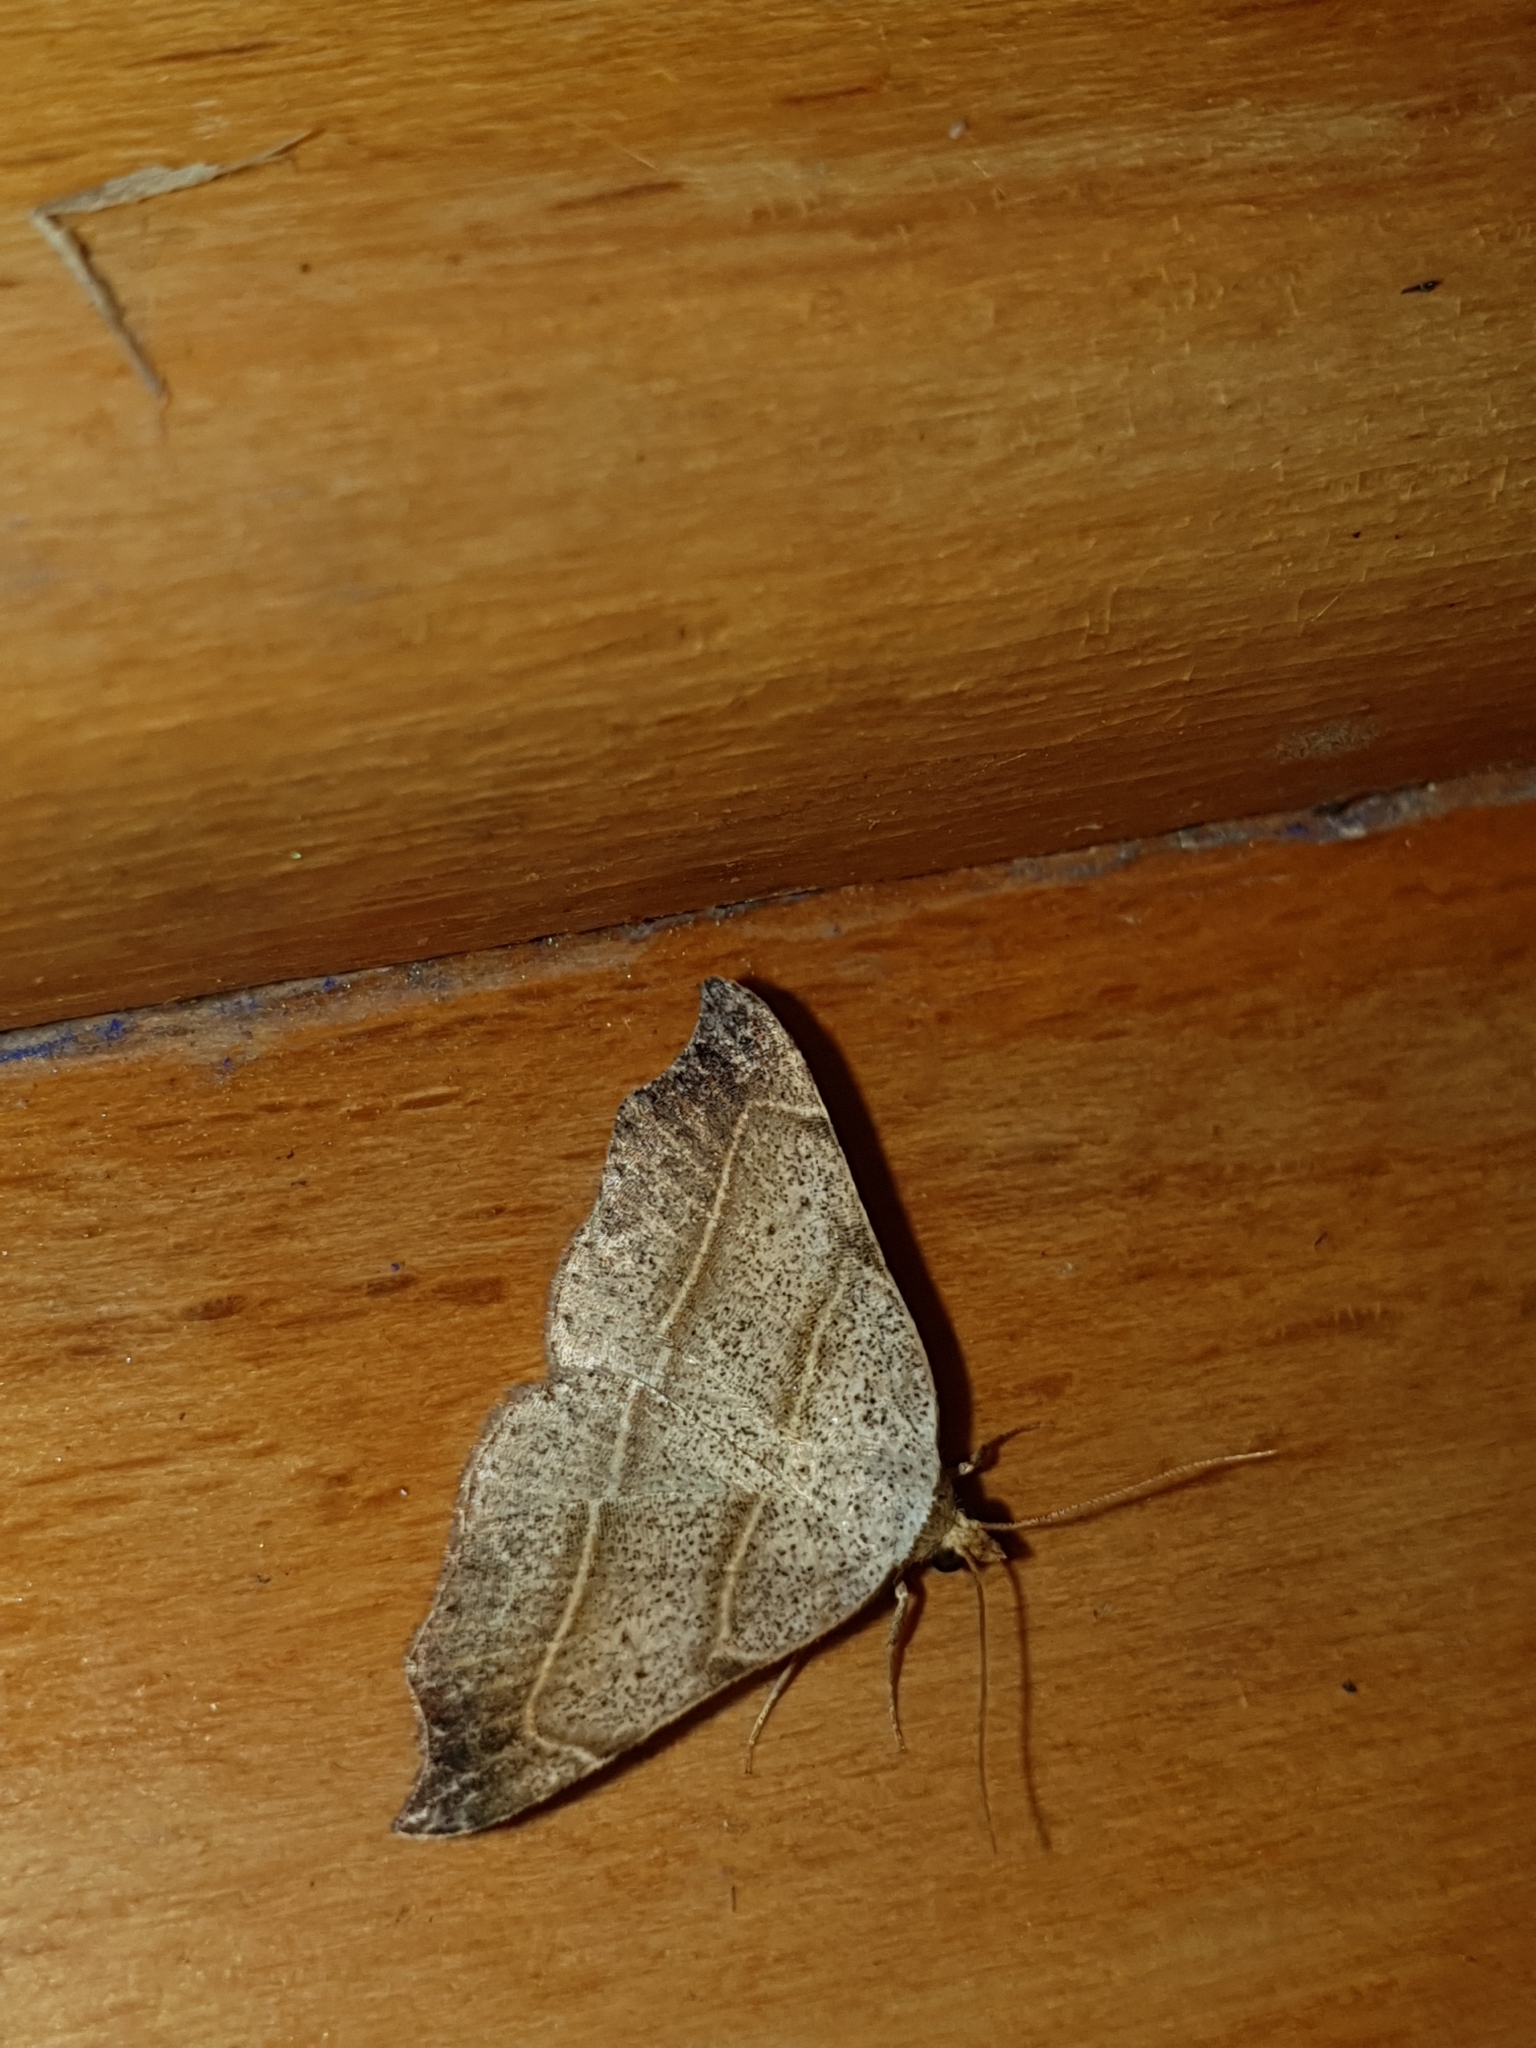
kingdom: Animalia
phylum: Arthropoda
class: Insecta
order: Lepidoptera
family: Erebidae
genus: Laspeyria
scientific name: Laspeyria flexula
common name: Beautiful hook-tip
